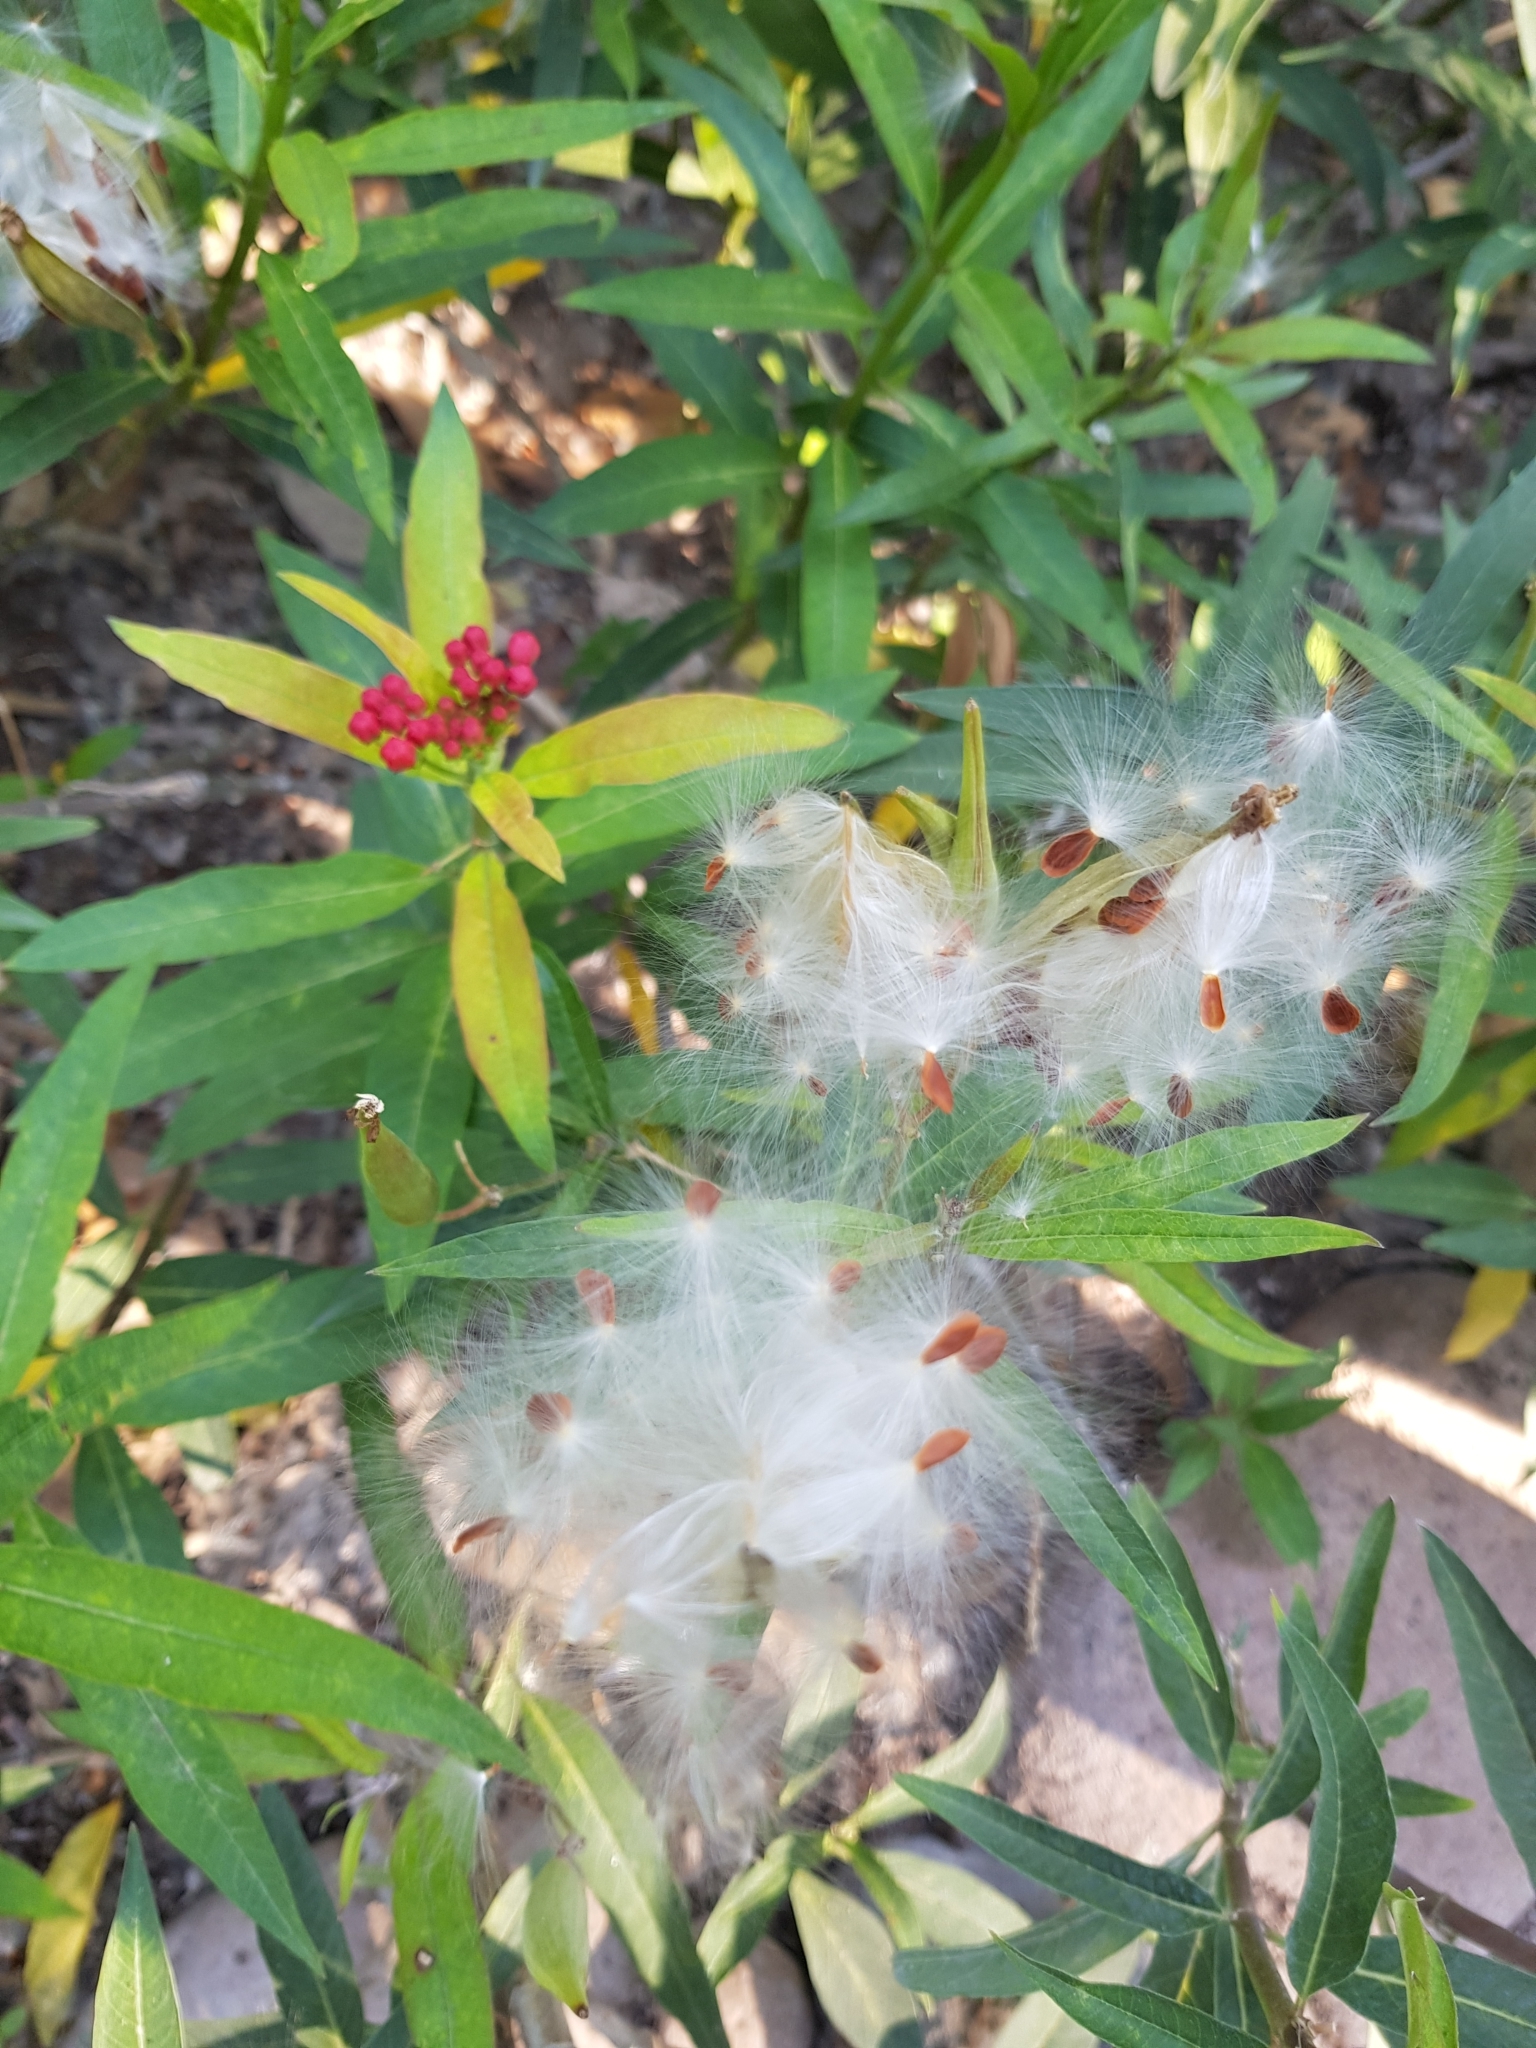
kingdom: Plantae
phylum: Tracheophyta
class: Magnoliopsida
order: Gentianales
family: Apocynaceae
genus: Asclepias
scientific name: Asclepias curassavica
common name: Bloodflower
